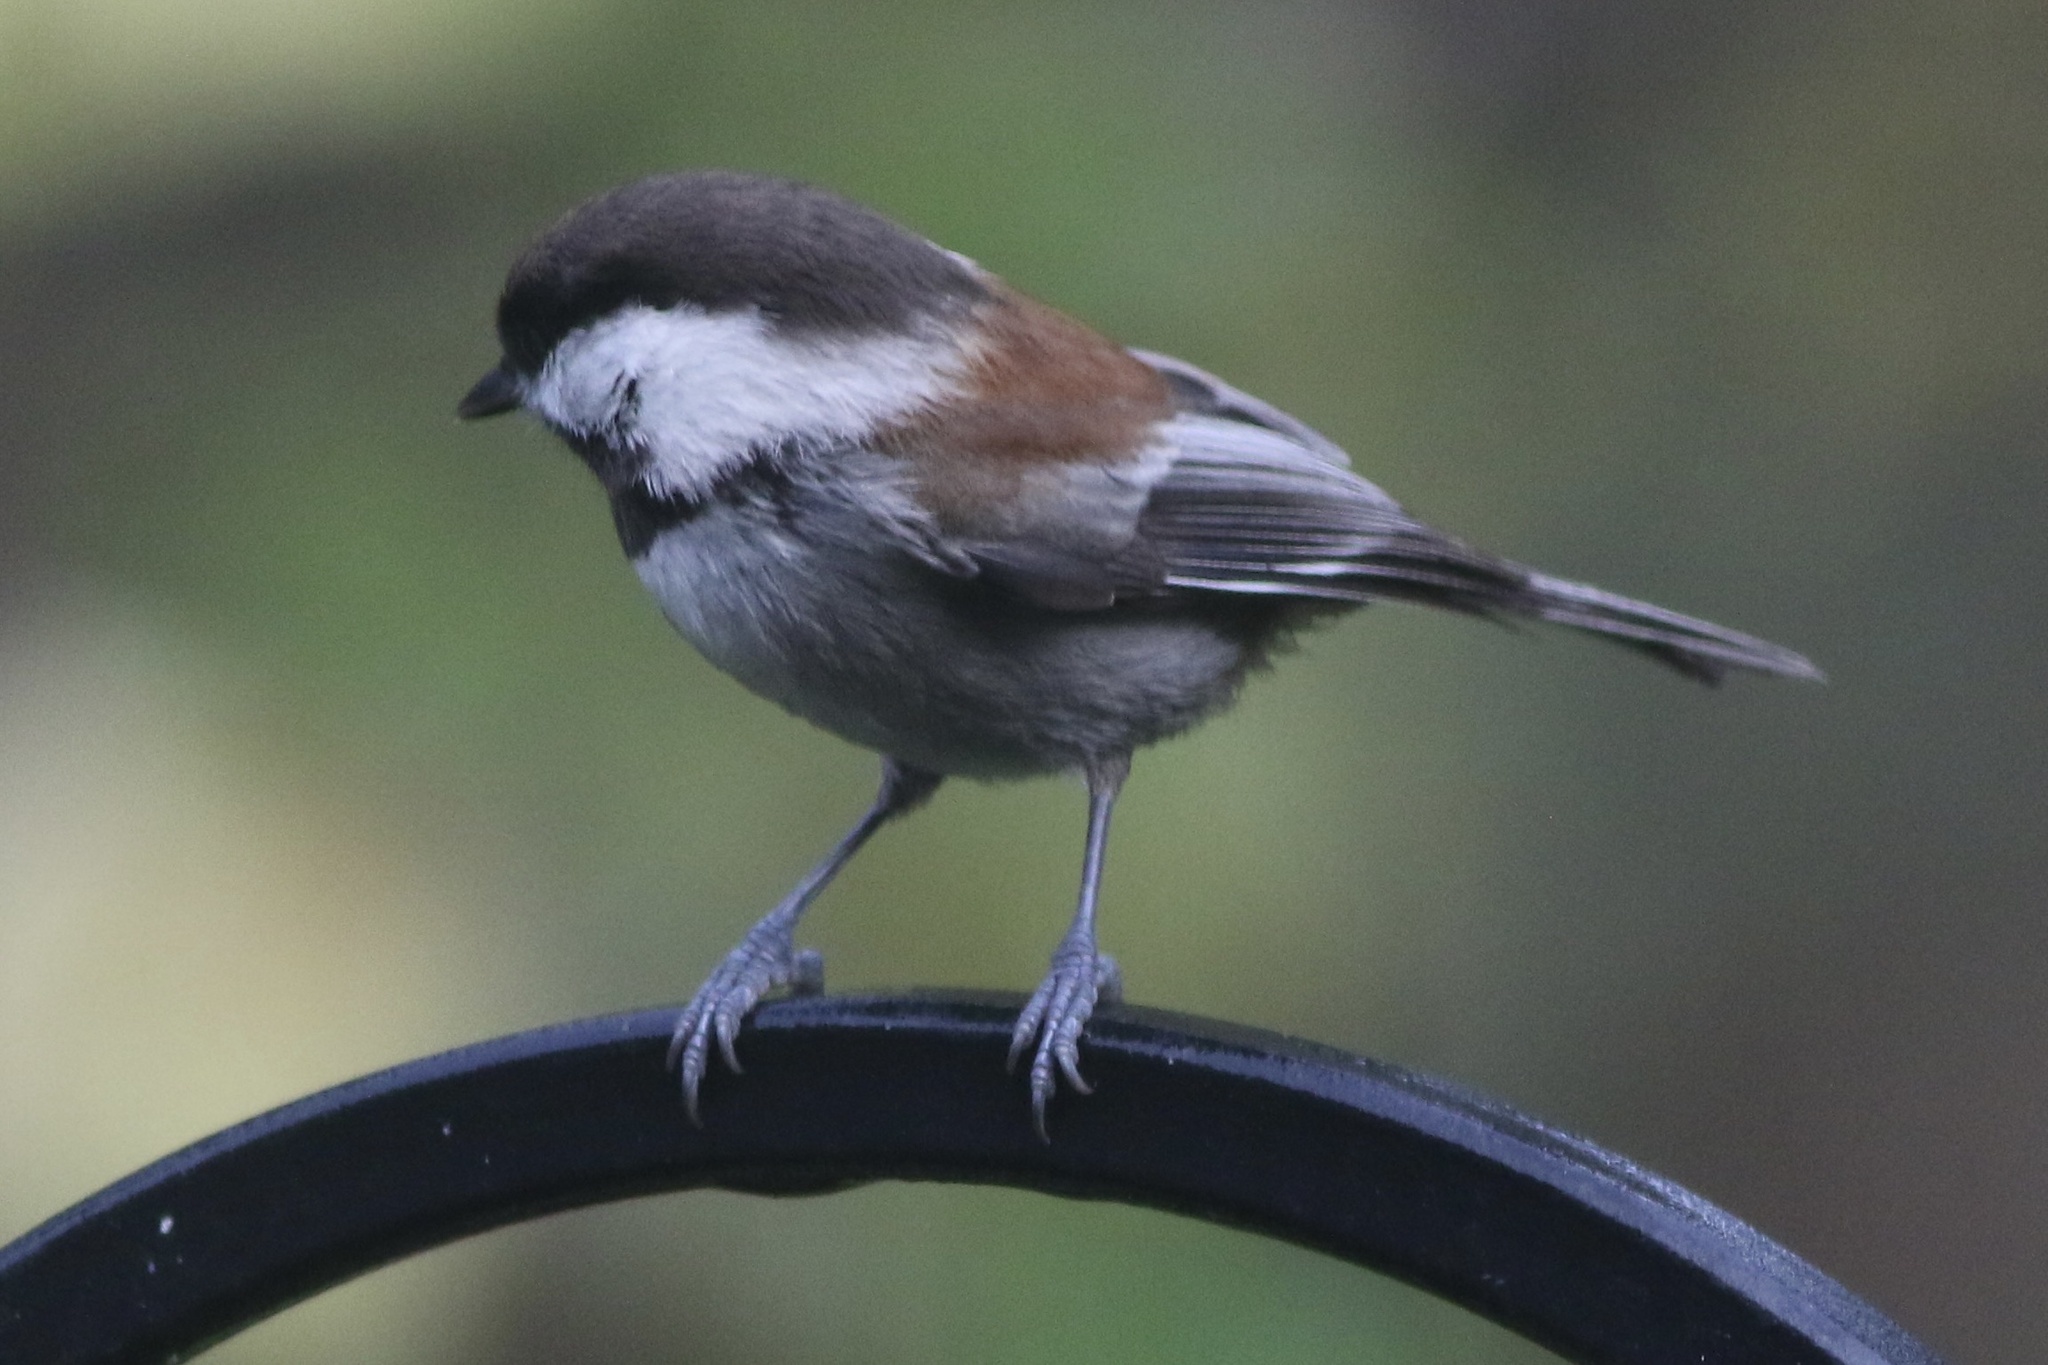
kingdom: Animalia
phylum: Chordata
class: Aves
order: Passeriformes
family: Paridae
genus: Poecile
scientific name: Poecile rufescens
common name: Chestnut-backed chickadee
